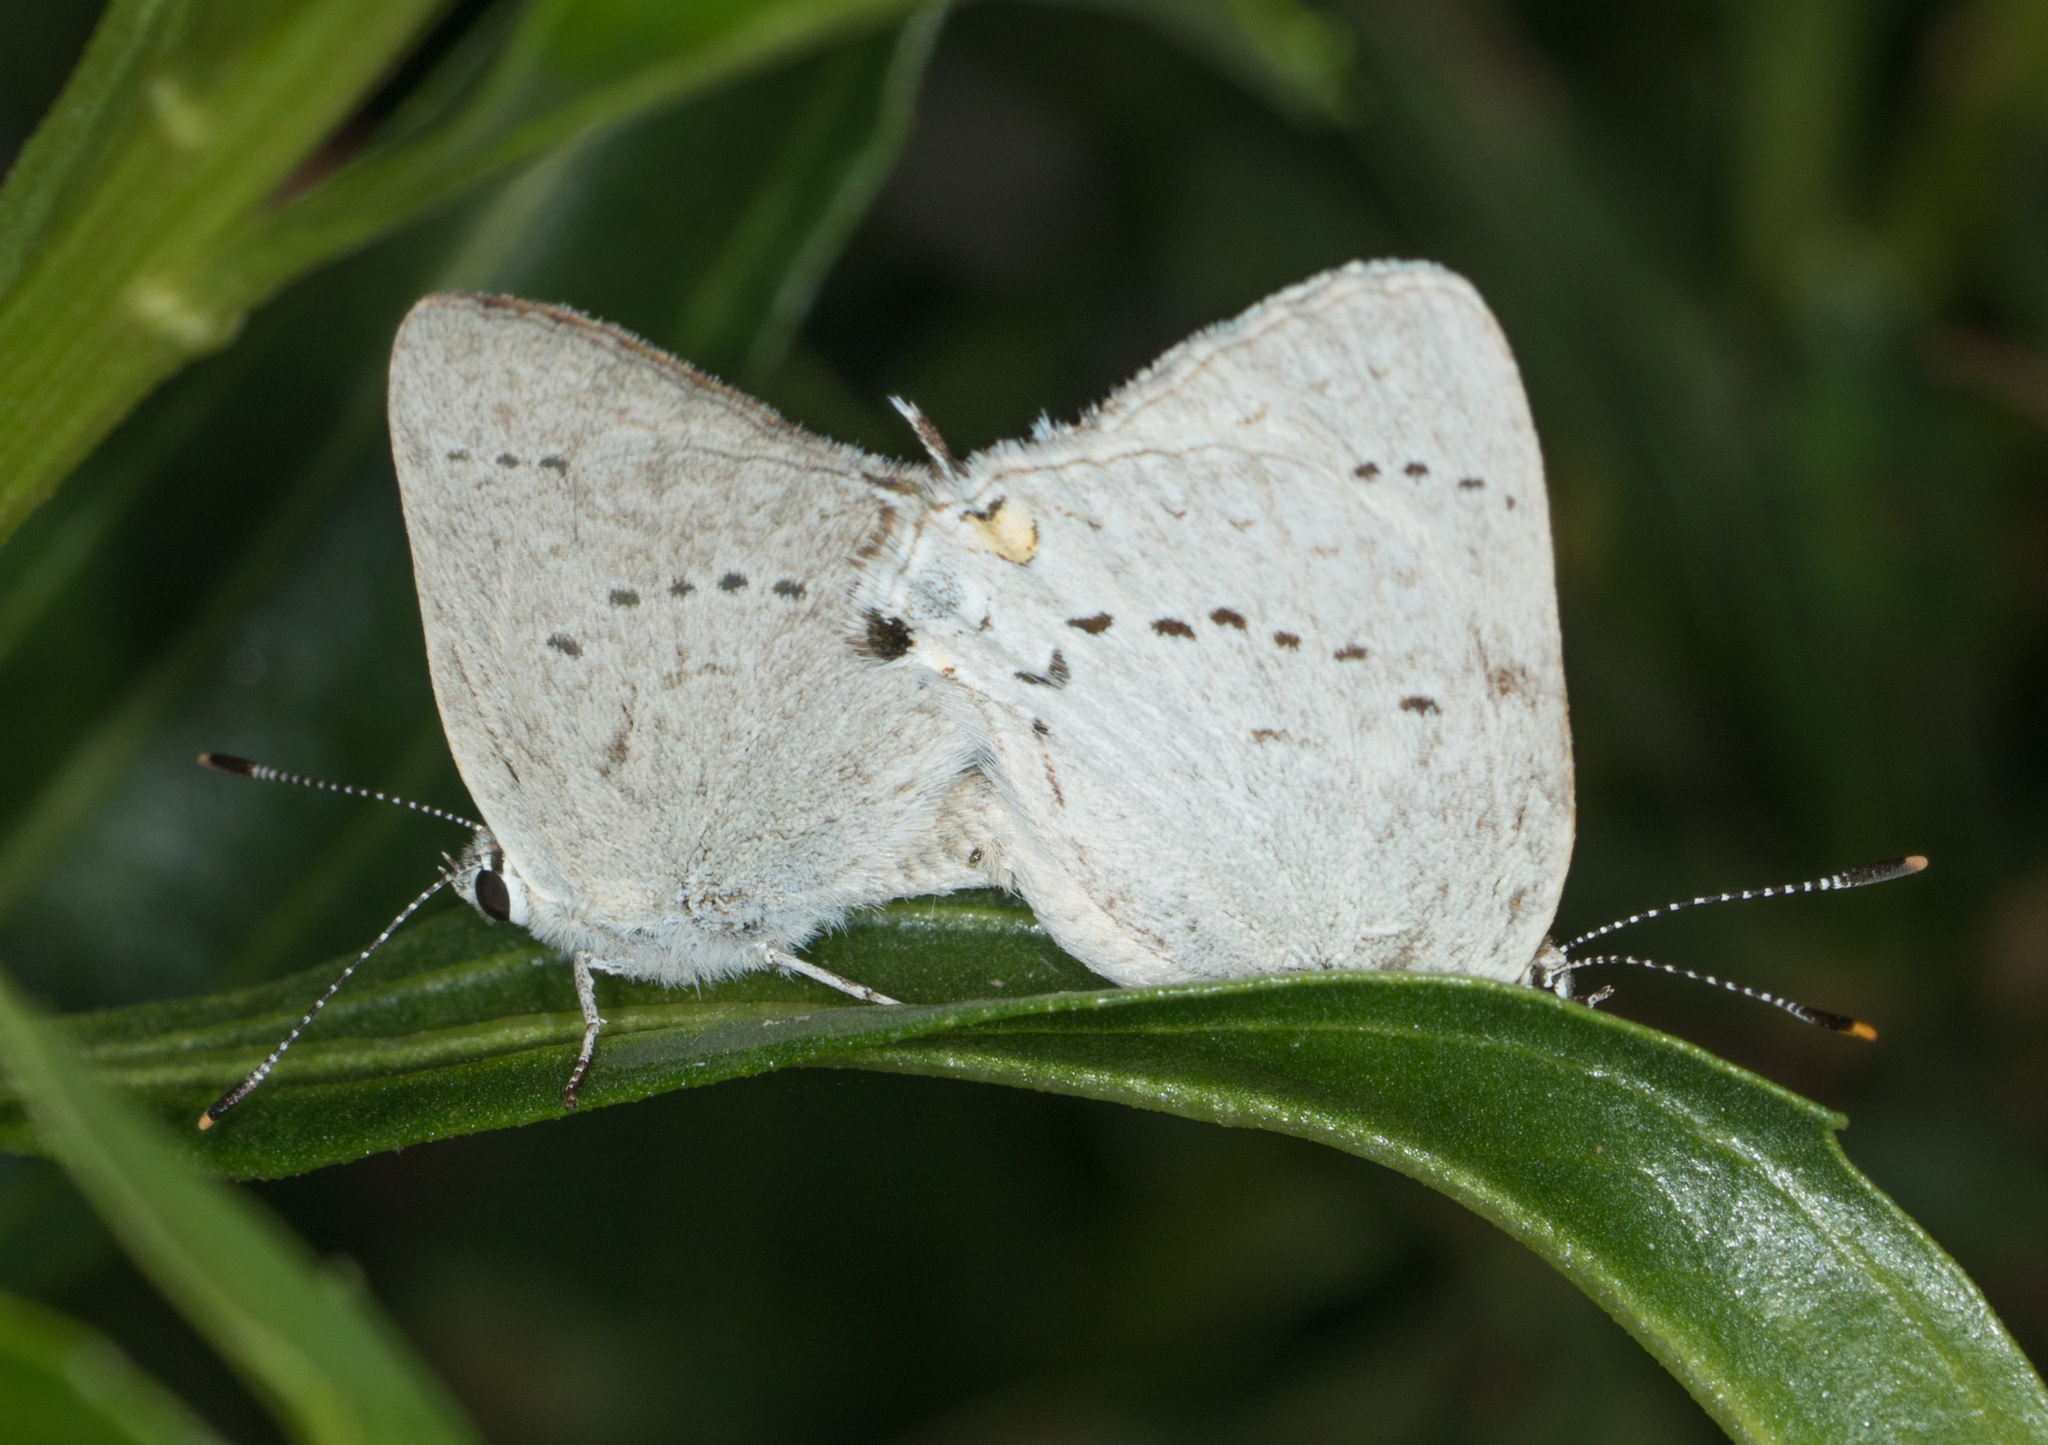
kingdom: Animalia
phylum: Arthropoda
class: Insecta
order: Lepidoptera
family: Lycaenidae
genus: Strymon
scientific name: Strymon sylvinus
